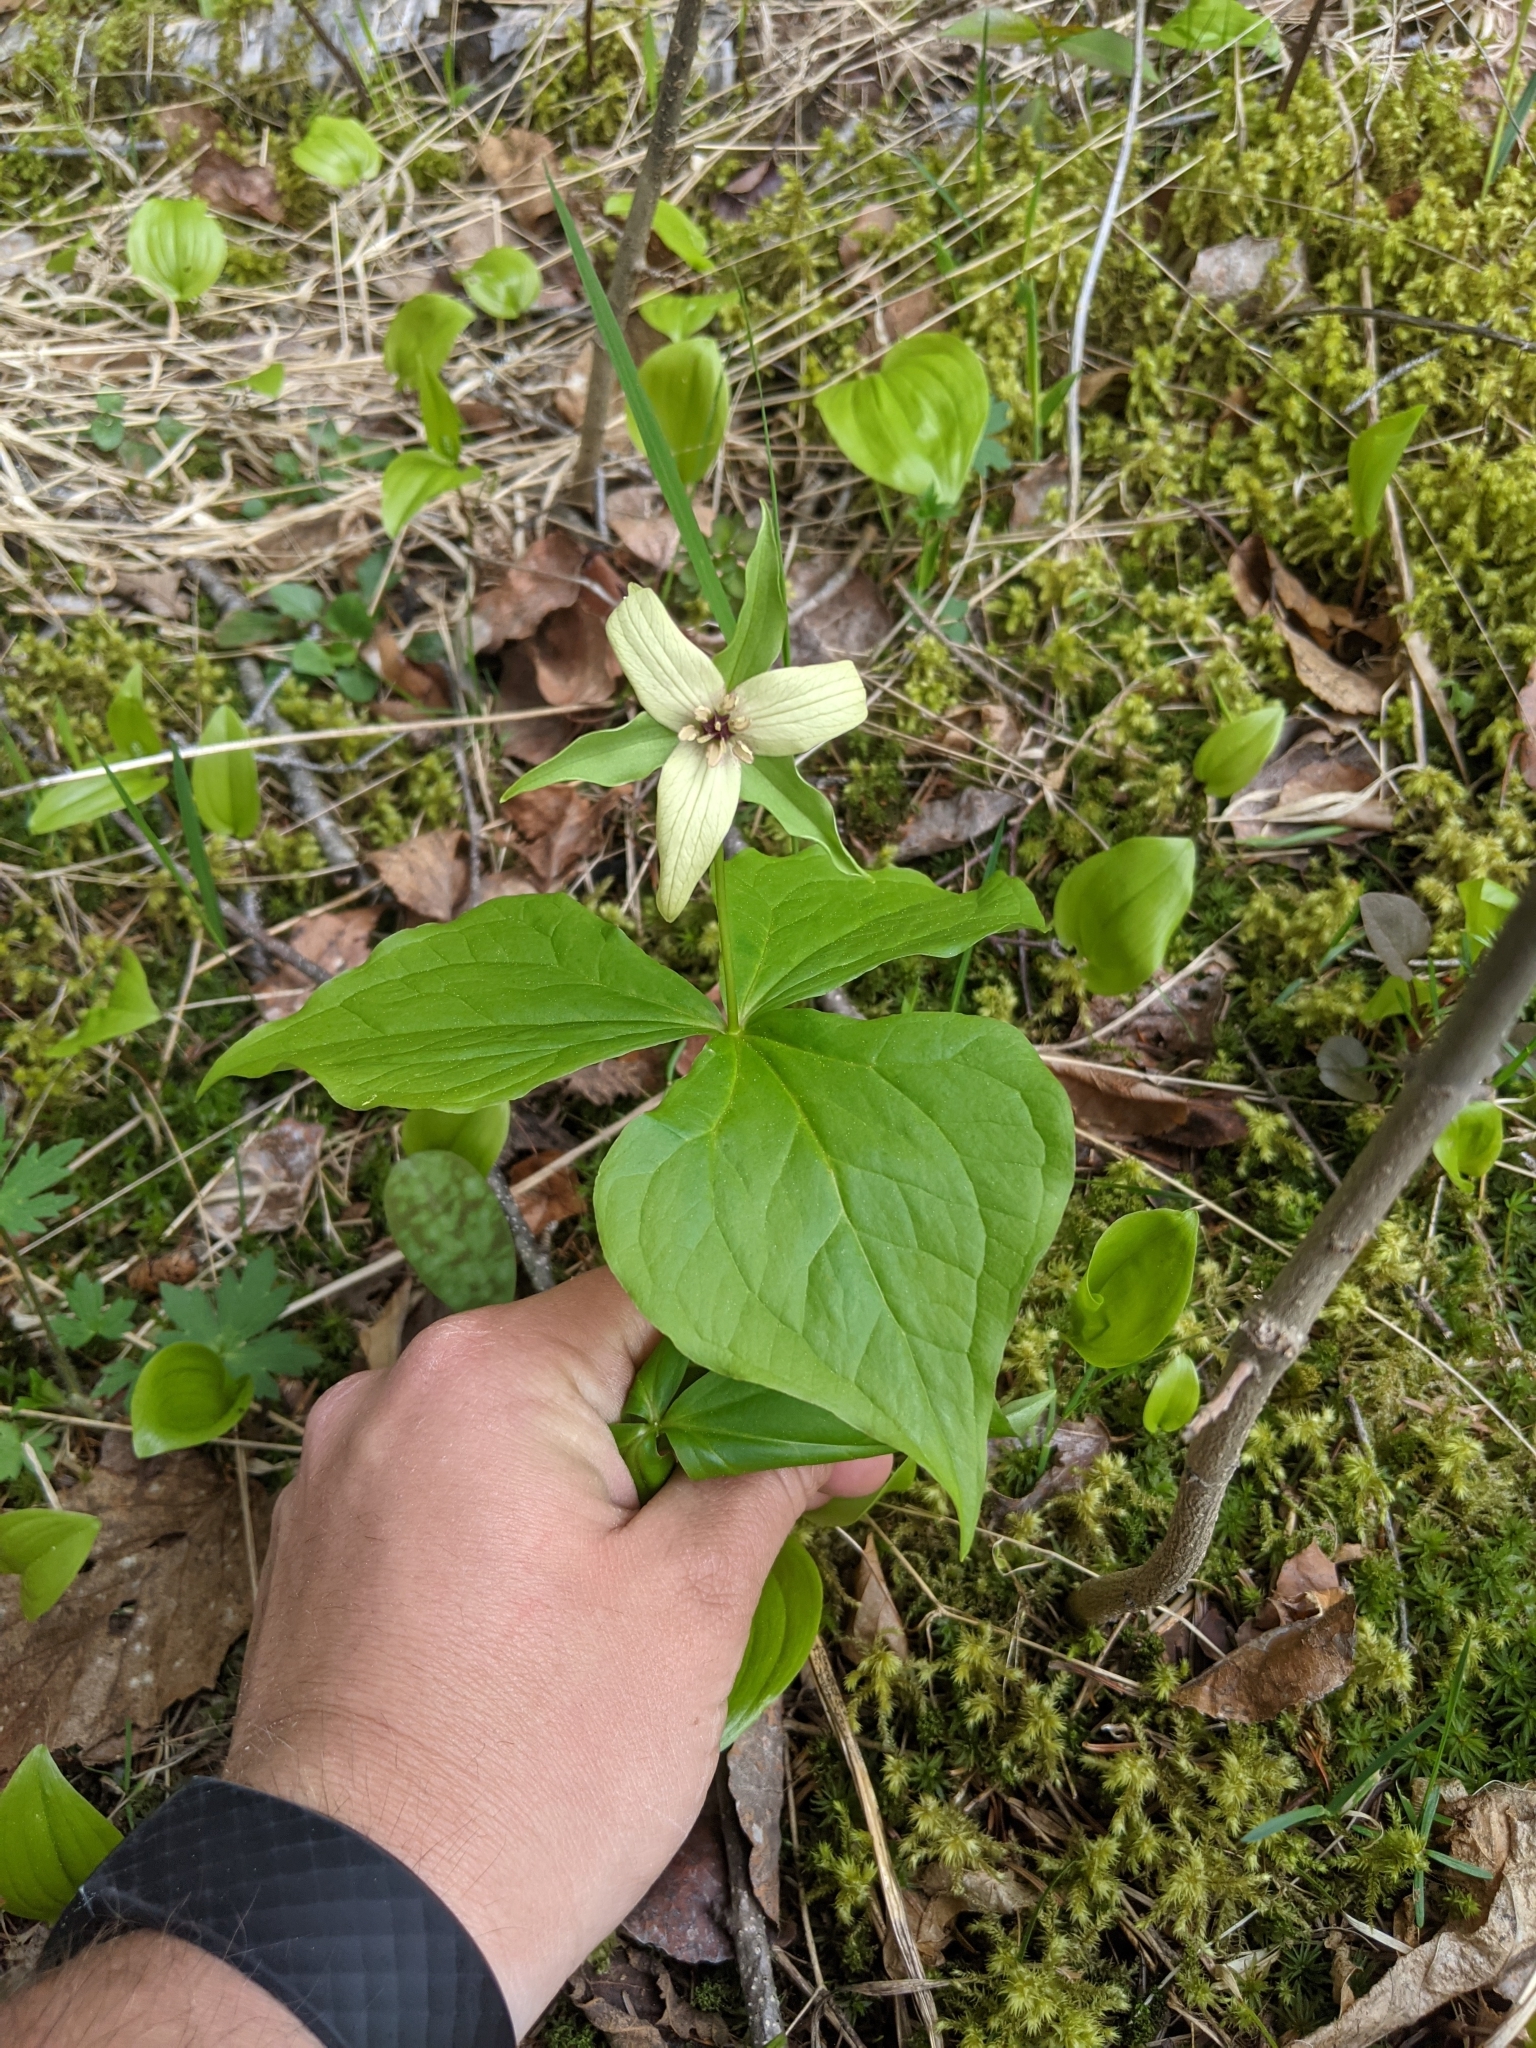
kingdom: Plantae
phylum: Tracheophyta
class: Liliopsida
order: Liliales
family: Melanthiaceae
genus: Trillium
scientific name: Trillium erectum
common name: Purple trillium
